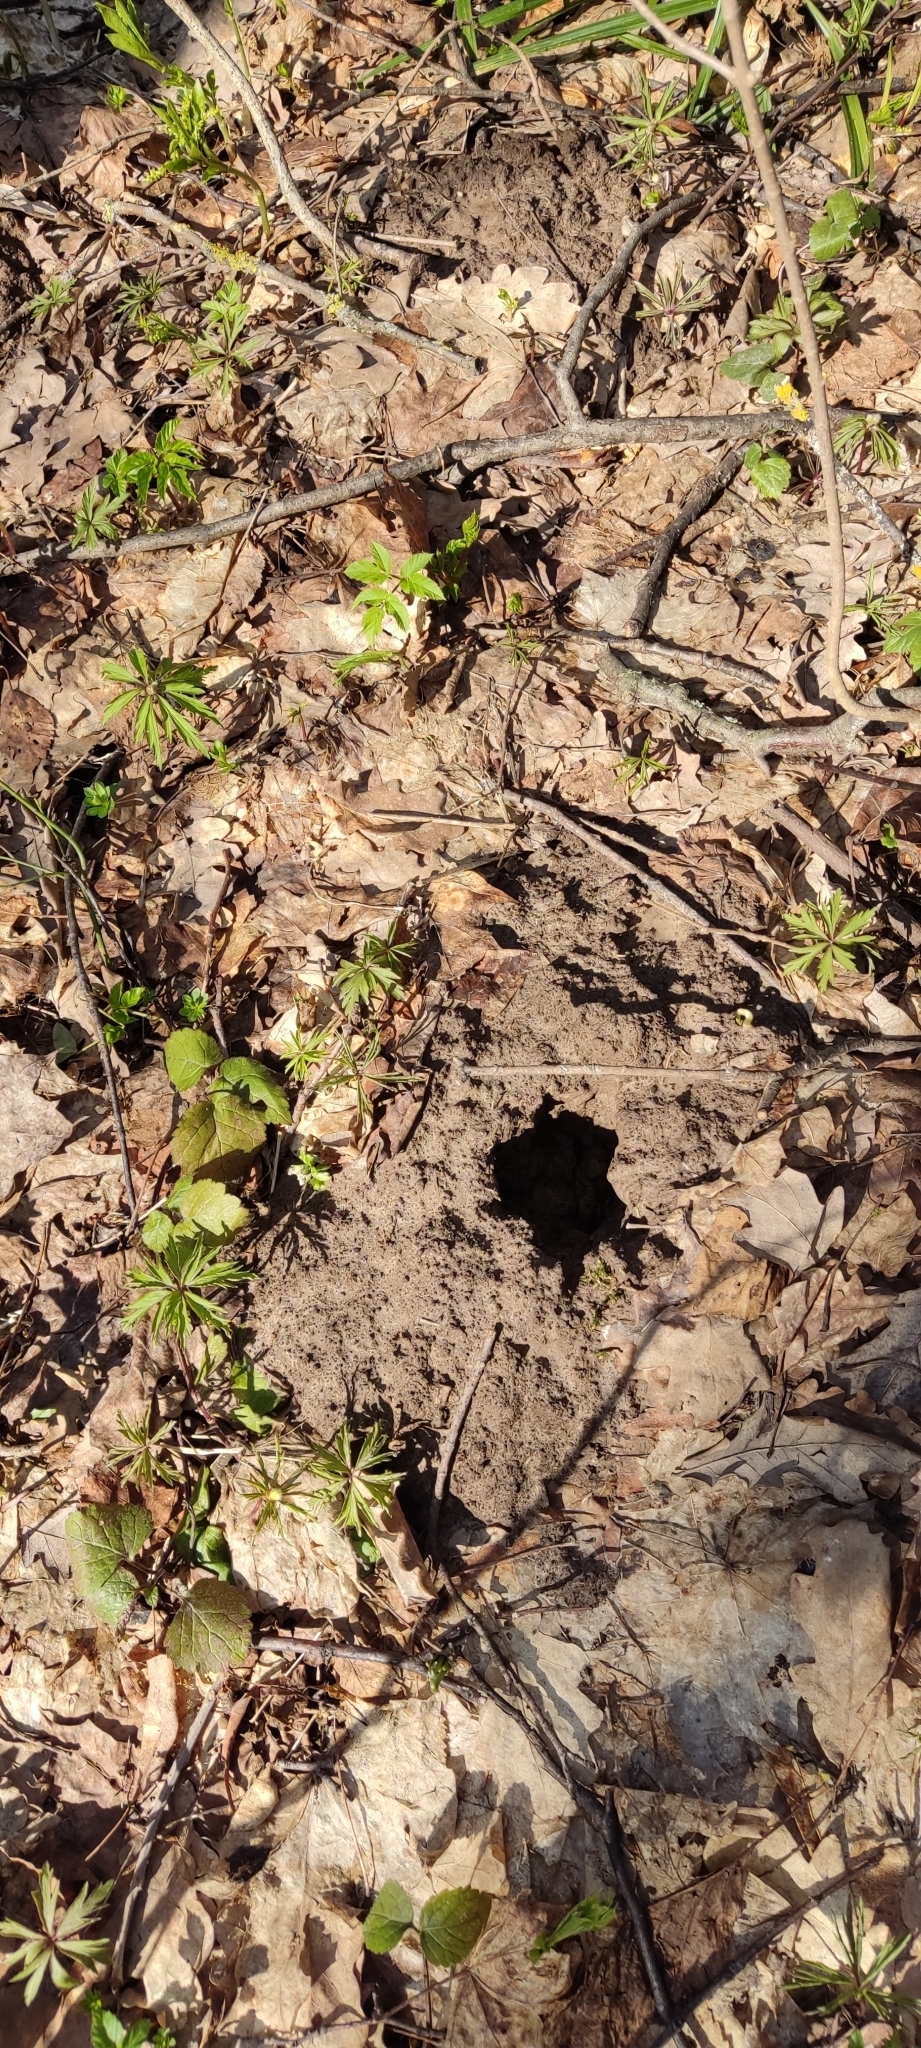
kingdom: Animalia
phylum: Chordata
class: Mammalia
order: Soricomorpha
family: Talpidae
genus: Talpa
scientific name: Talpa europaea
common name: European mole
